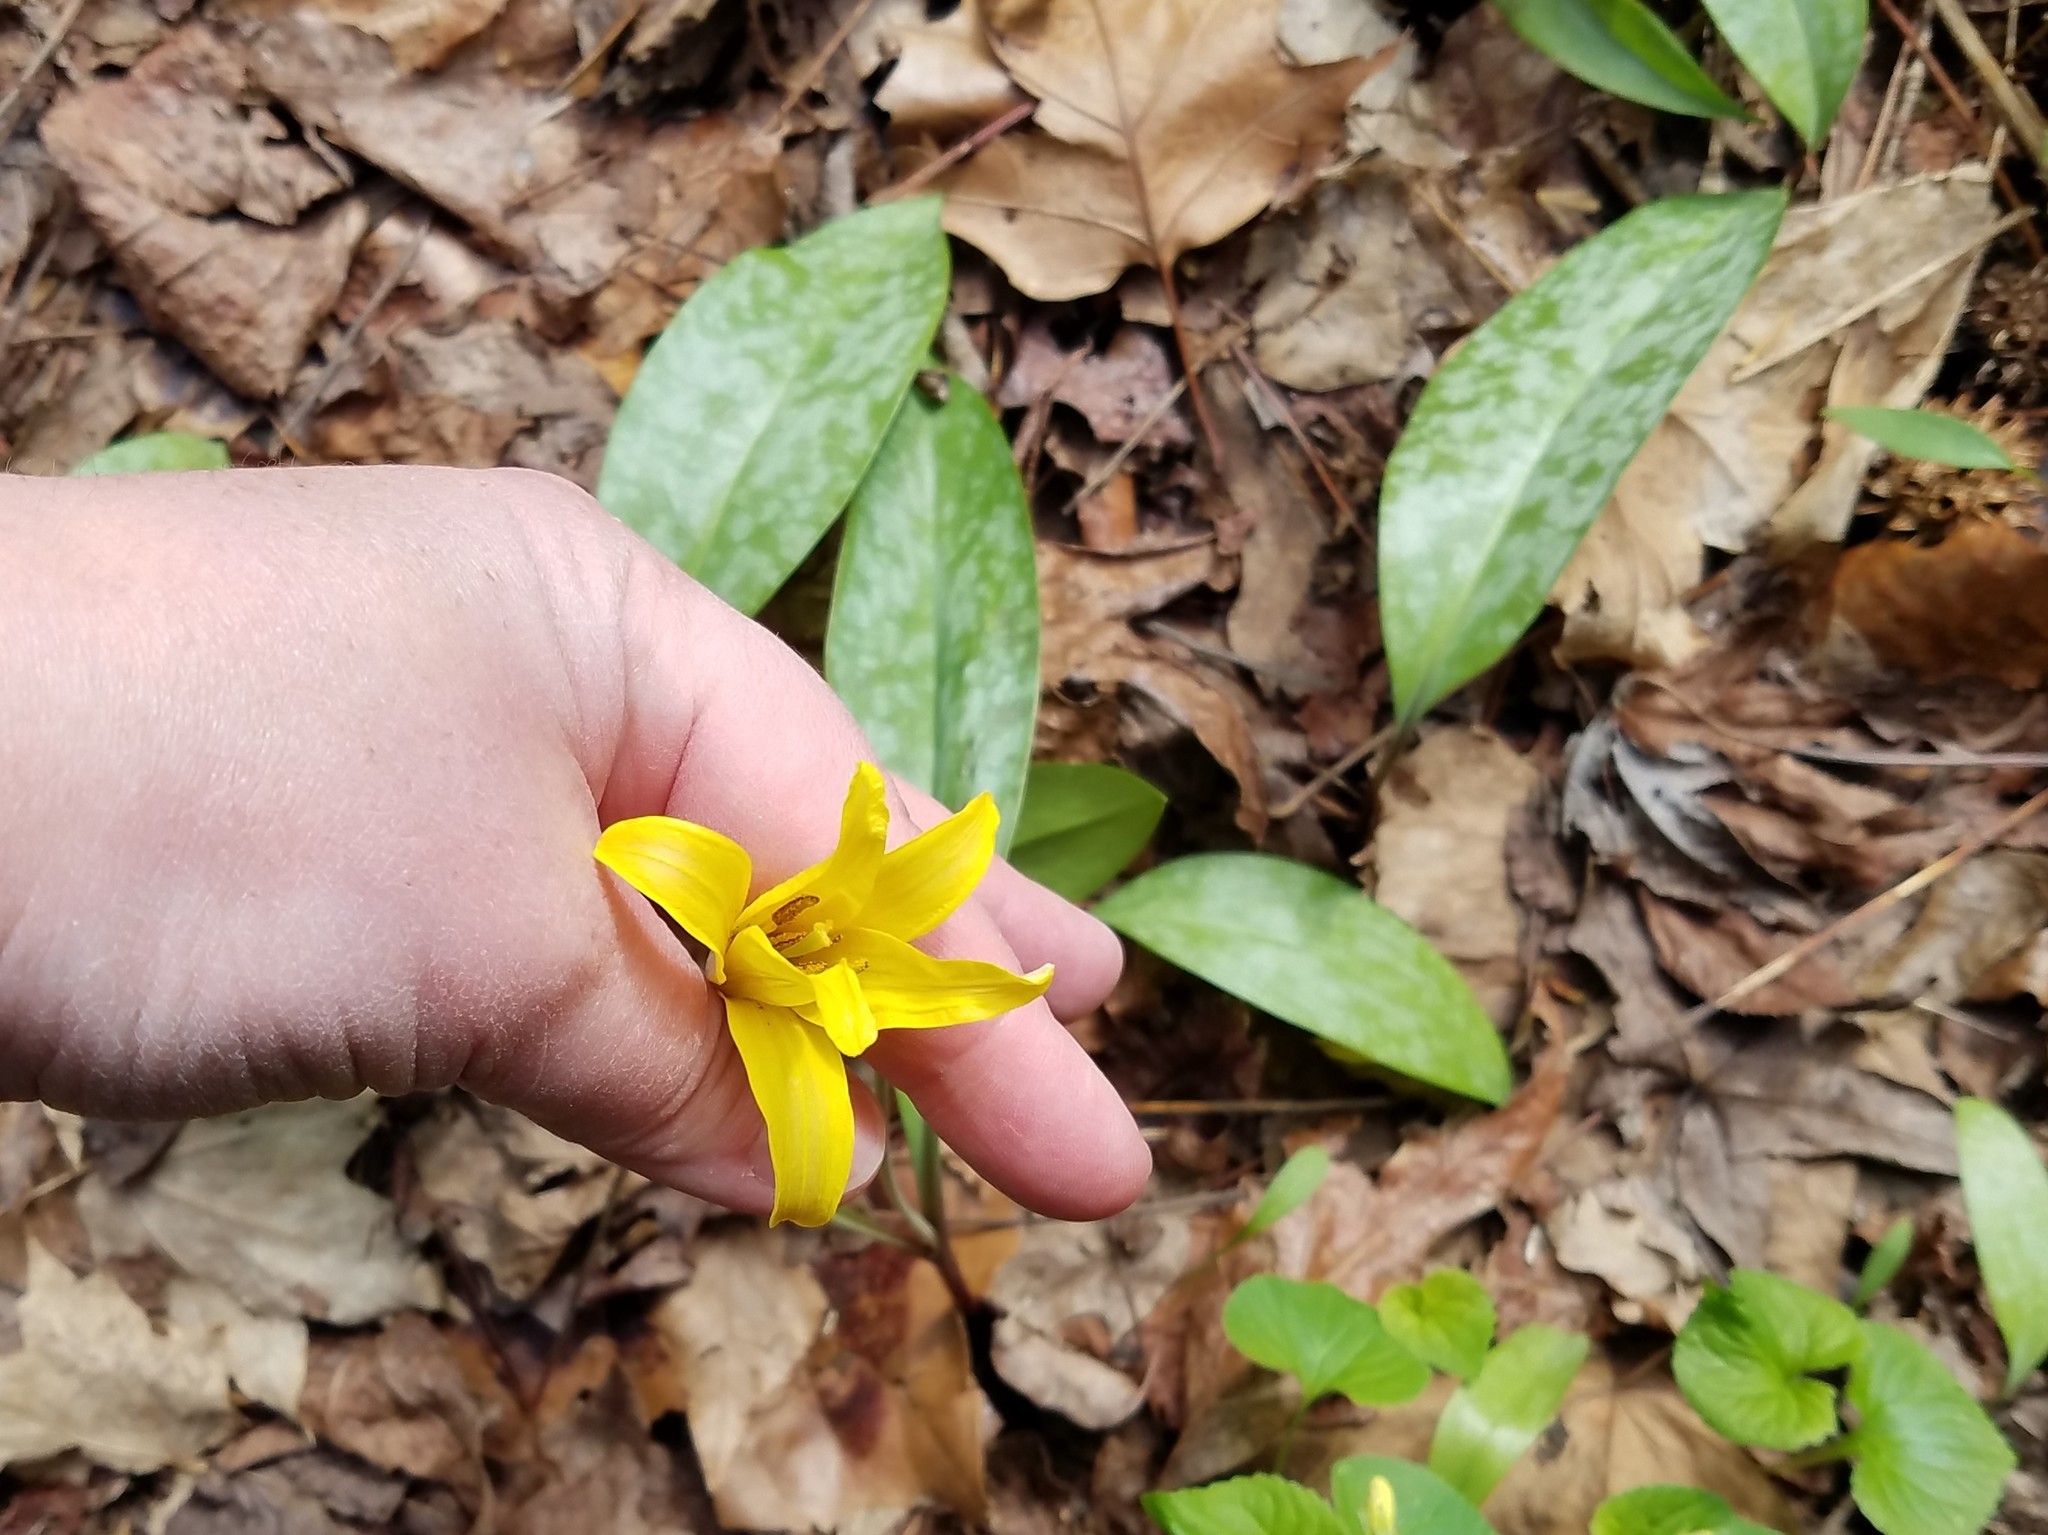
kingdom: Plantae
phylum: Tracheophyta
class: Liliopsida
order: Liliales
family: Liliaceae
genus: Erythronium
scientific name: Erythronium americanum
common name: Yellow adder's-tongue
